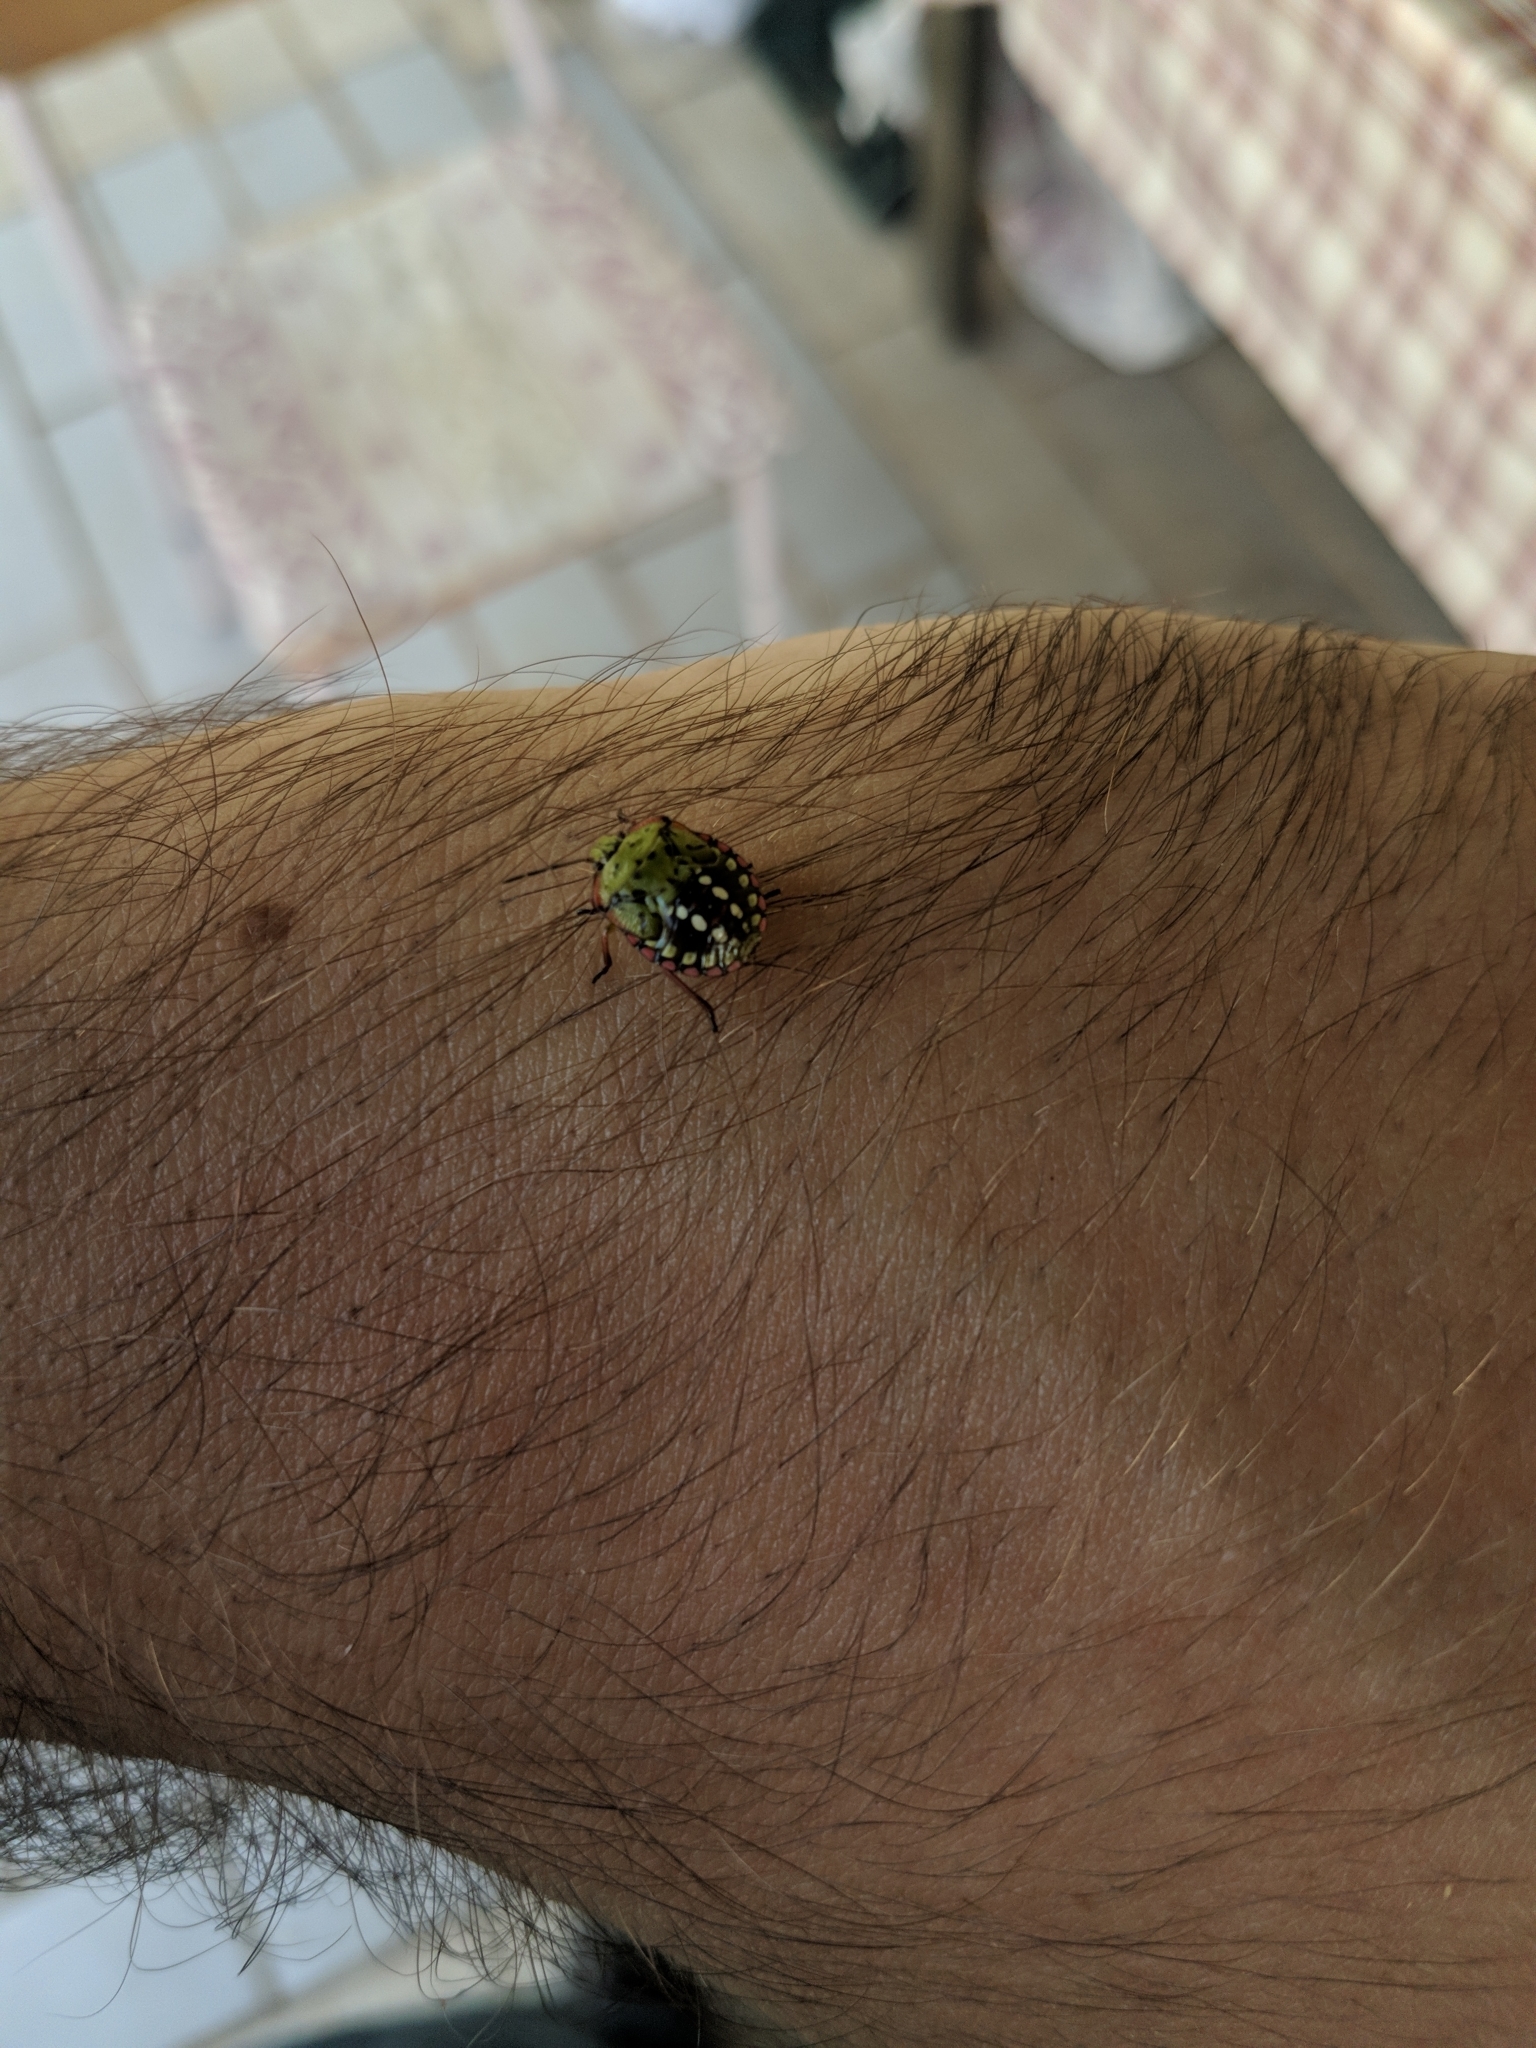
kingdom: Animalia
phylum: Arthropoda
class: Insecta
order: Hemiptera
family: Pentatomidae
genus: Nezara
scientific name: Nezara viridula
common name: Southern green stink bug
